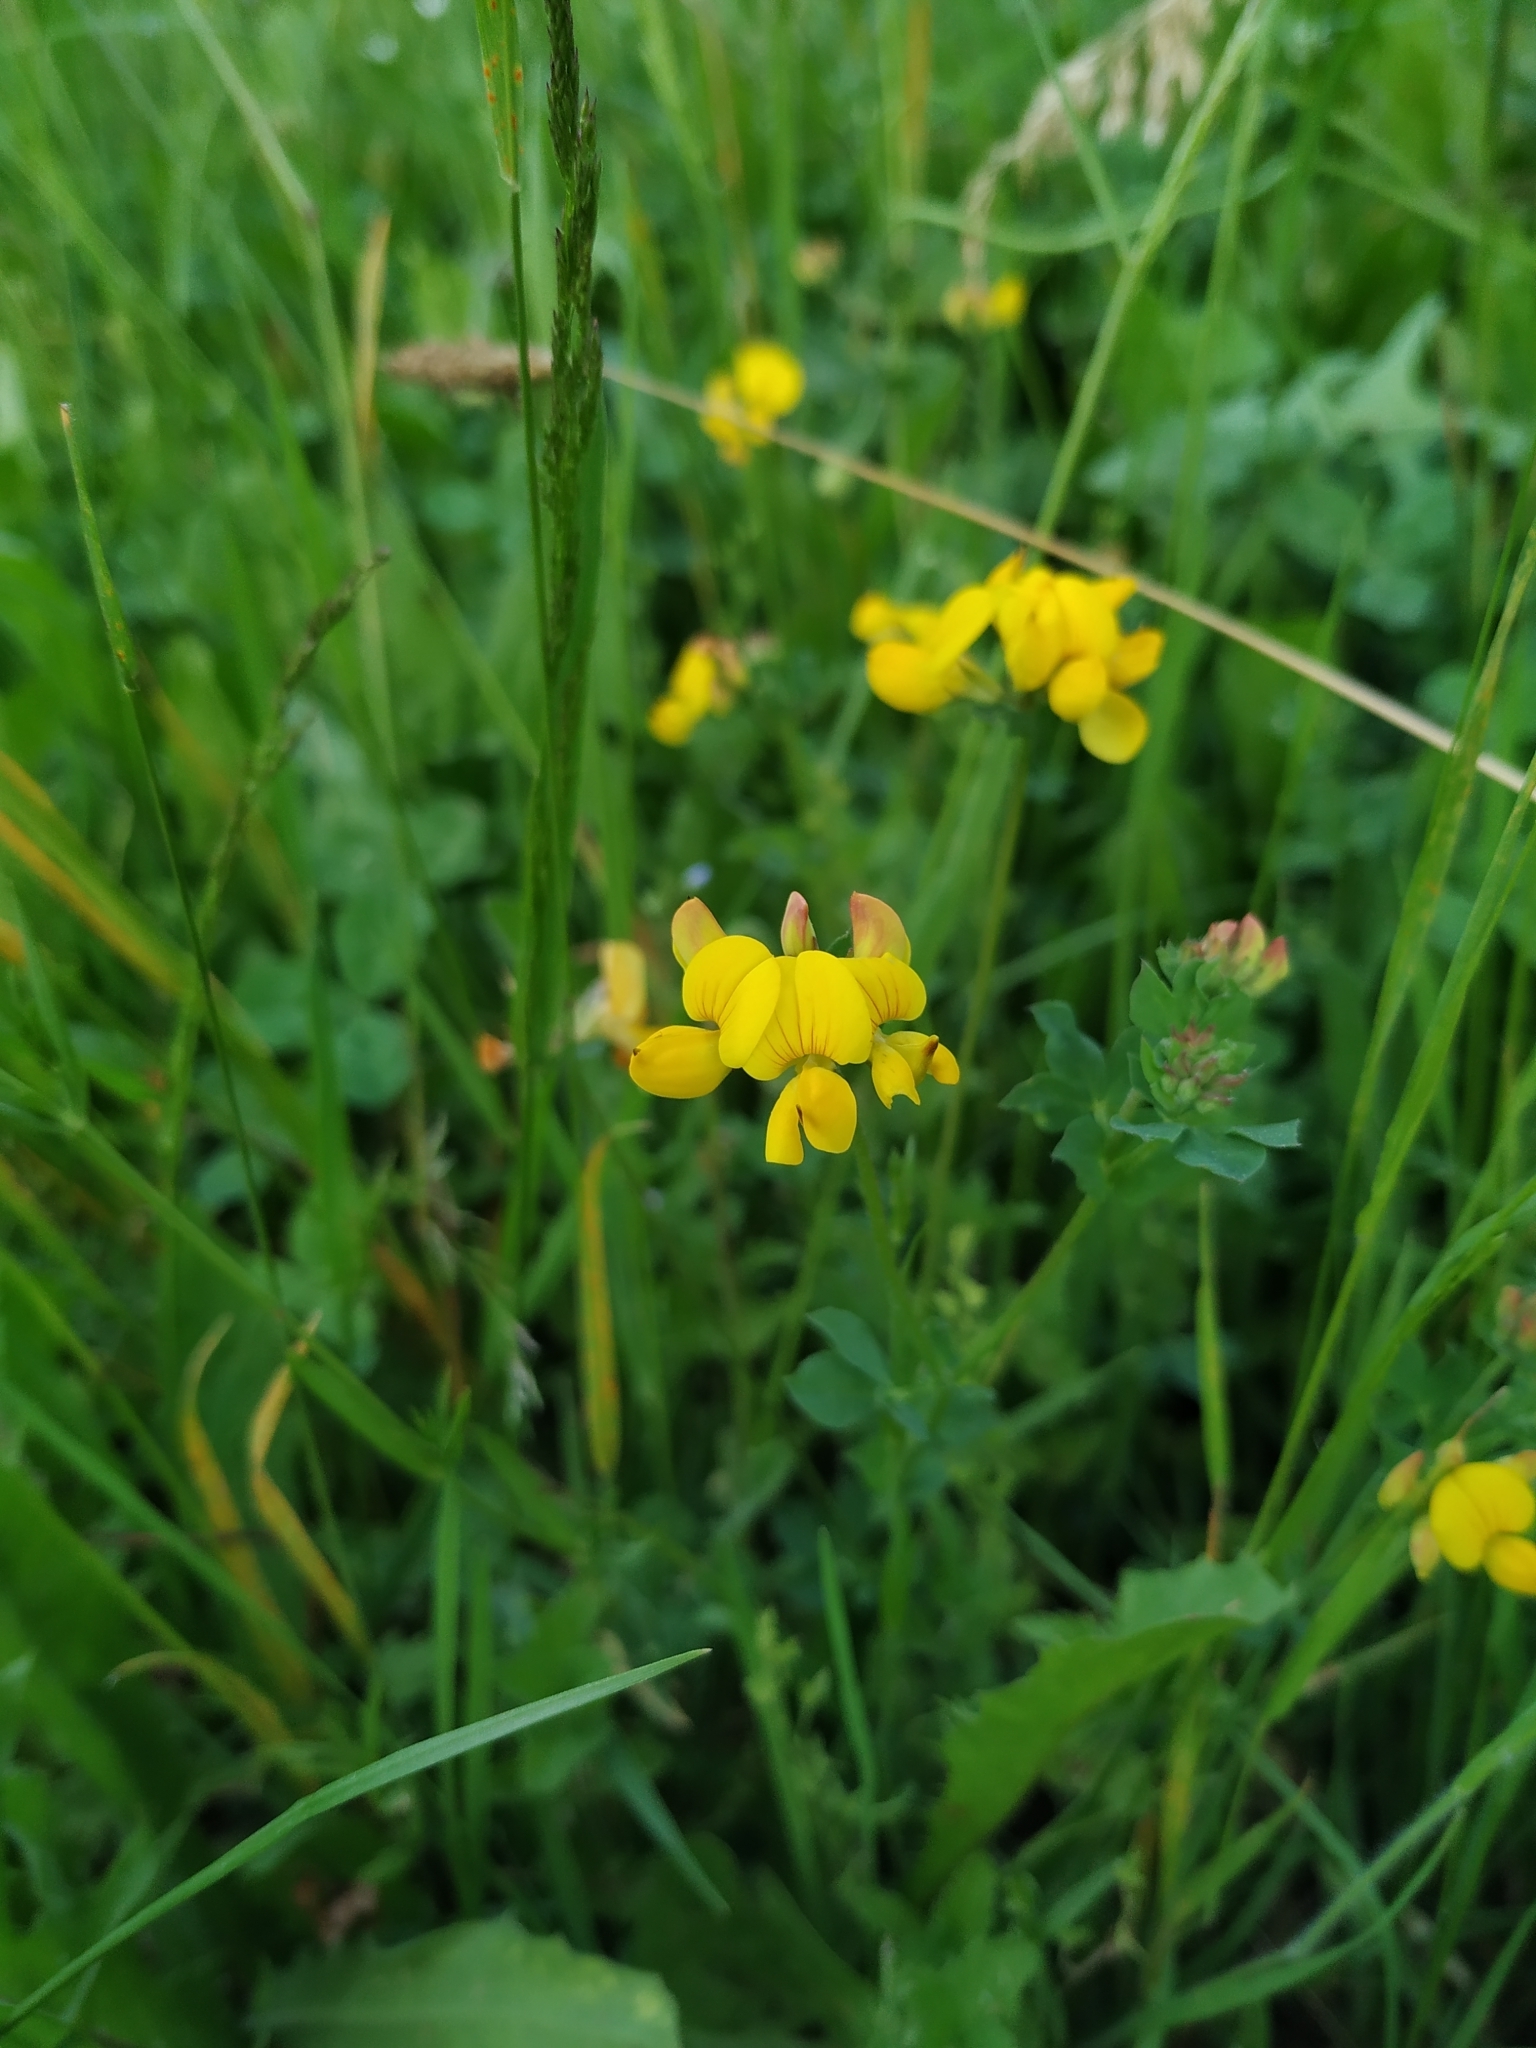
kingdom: Plantae
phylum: Tracheophyta
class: Magnoliopsida
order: Fabales
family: Fabaceae
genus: Lotus
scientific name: Lotus corniculatus
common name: Common bird's-foot-trefoil
